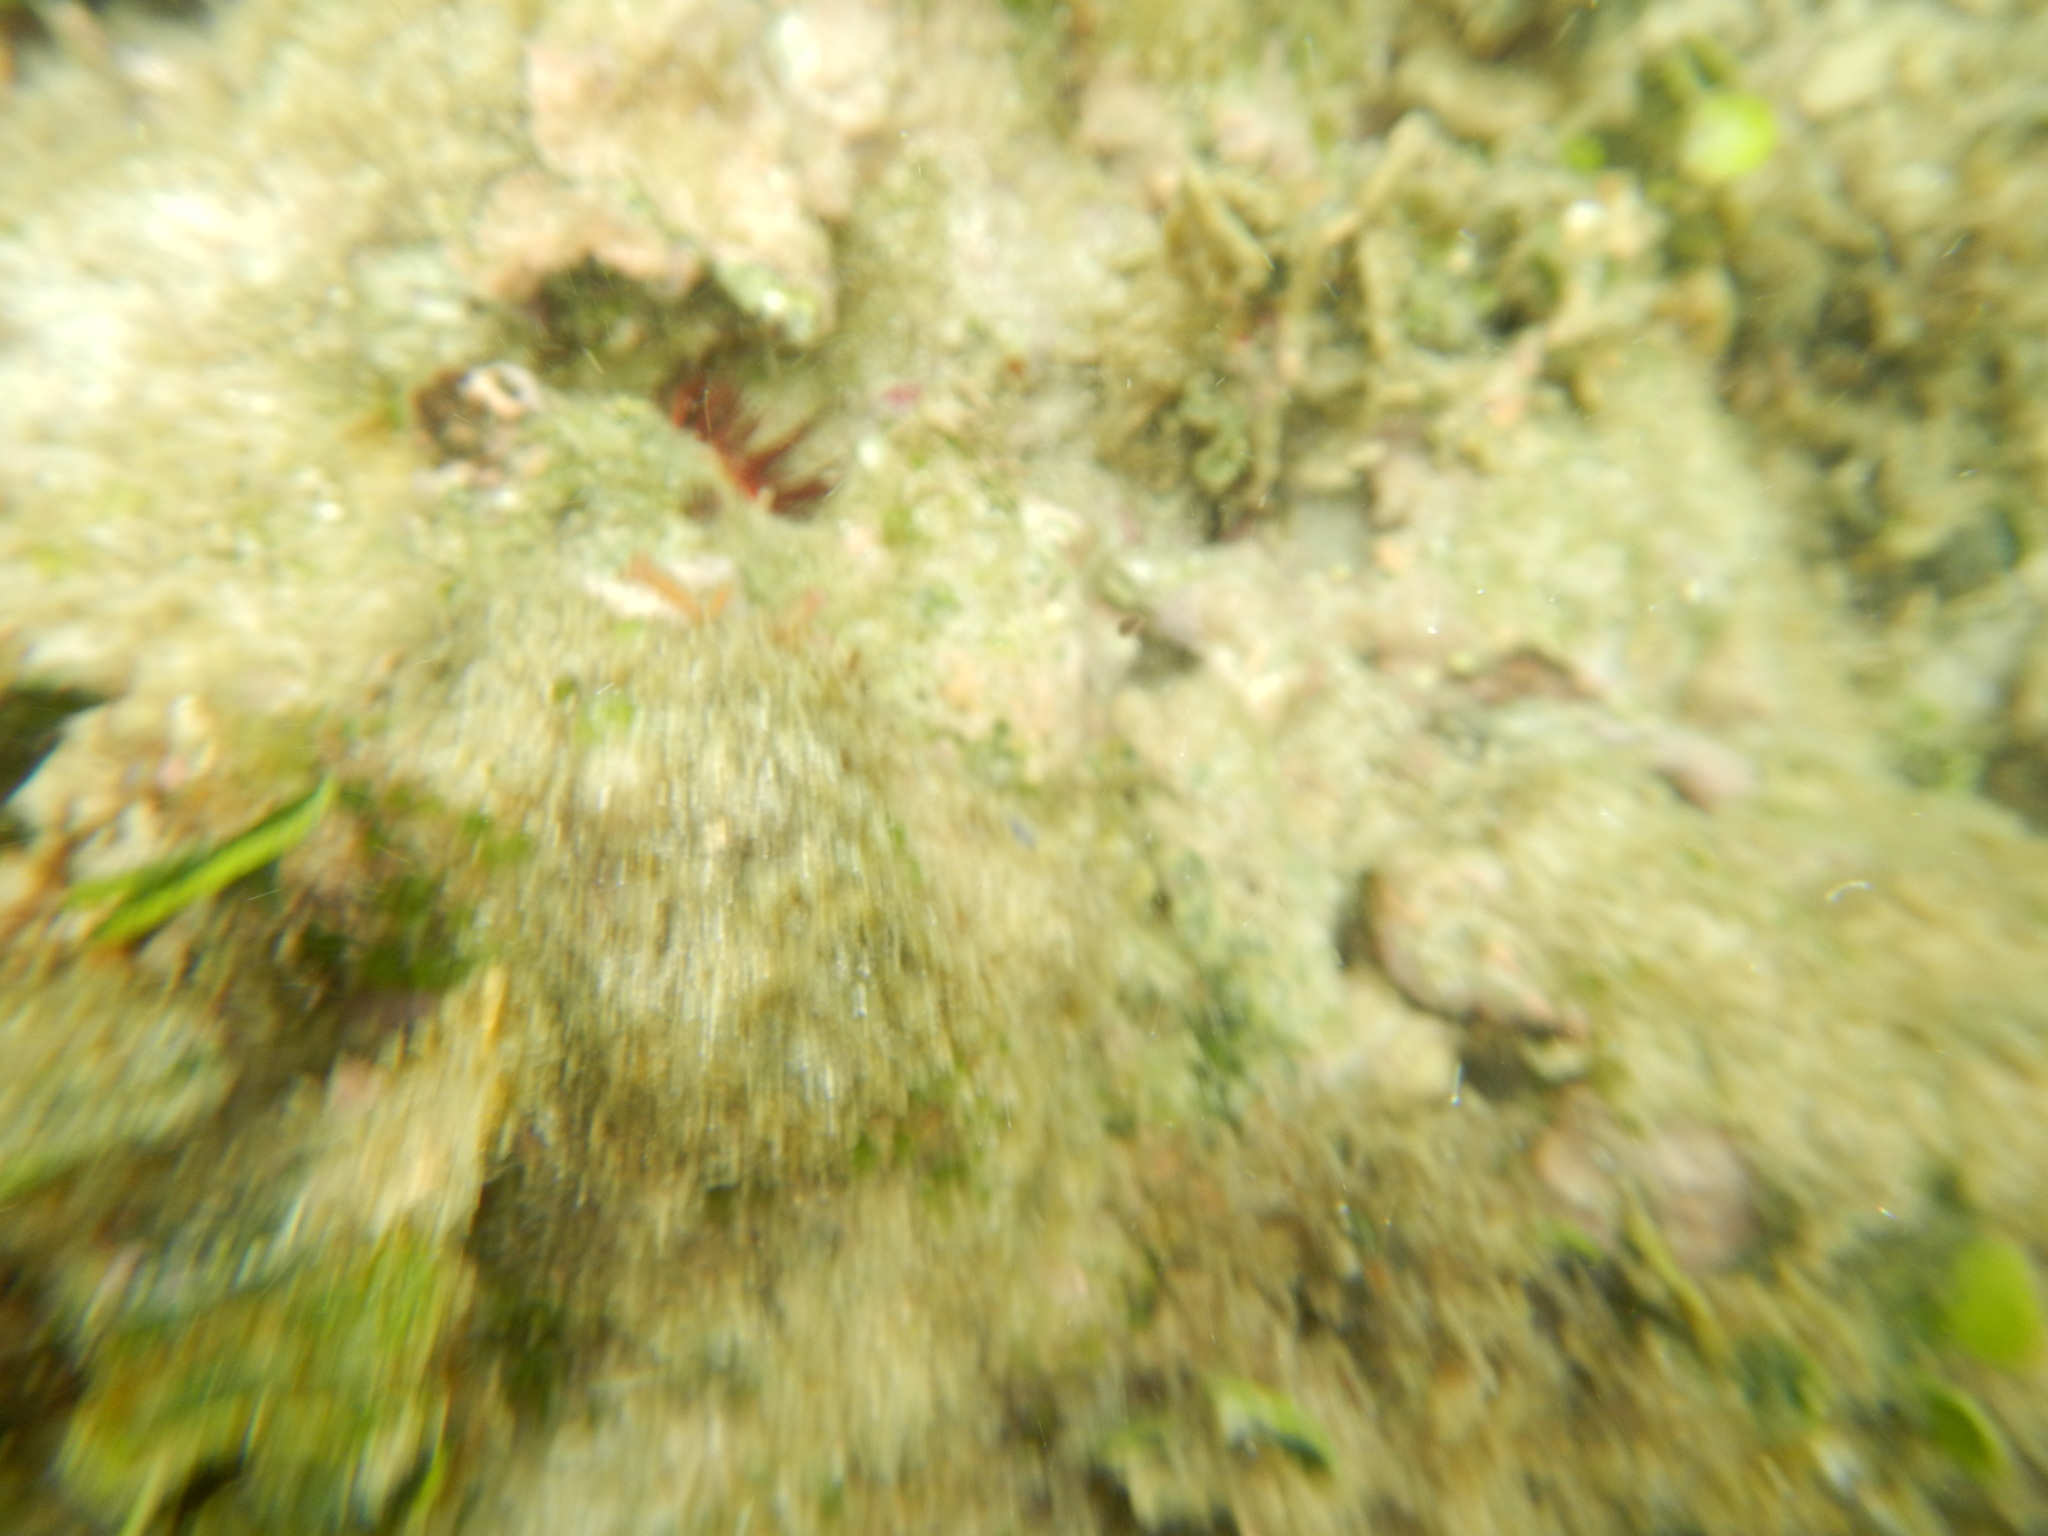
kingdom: Animalia
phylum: Echinodermata
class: Echinoidea
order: Camarodonta
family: Echinometridae
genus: Echinometra
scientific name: Echinometra lucunter
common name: Rock urchin
